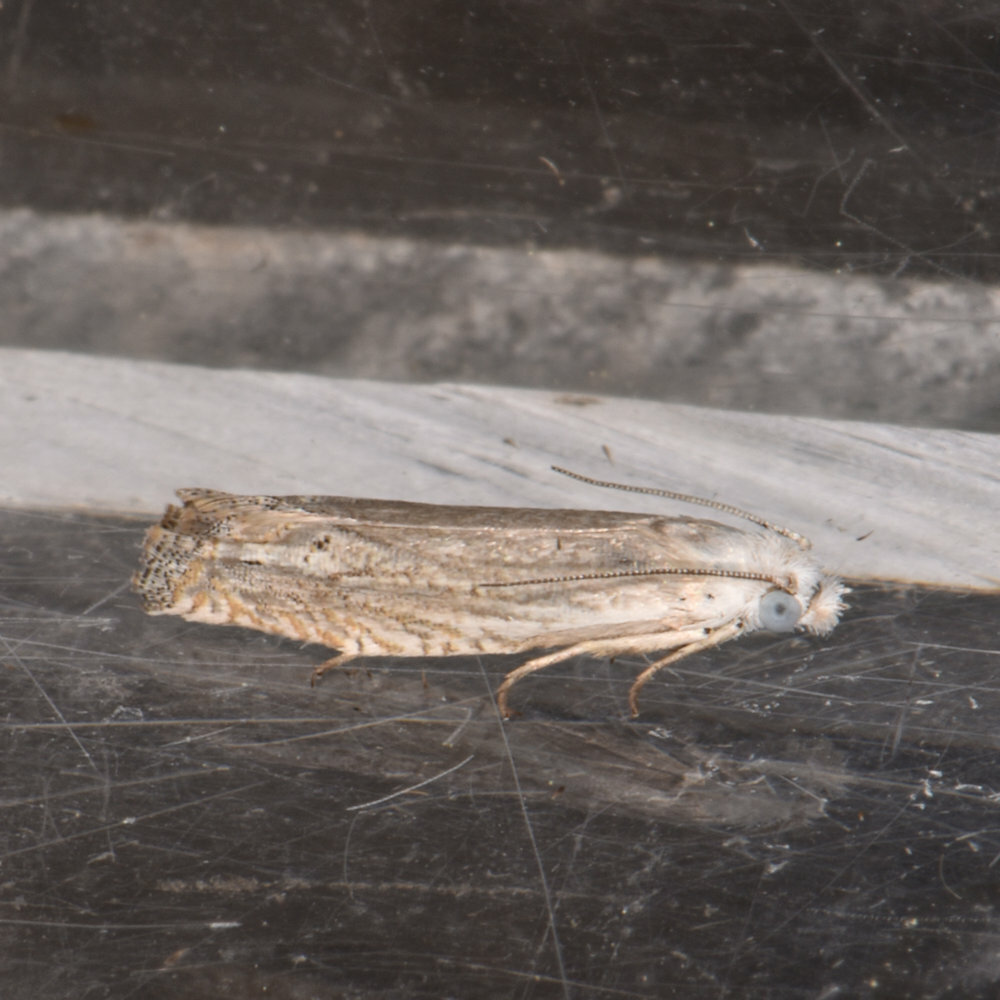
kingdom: Animalia
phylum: Arthropoda
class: Insecta
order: Lepidoptera
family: Tortricidae
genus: Pelochrista
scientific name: Pelochrista argentialbana
